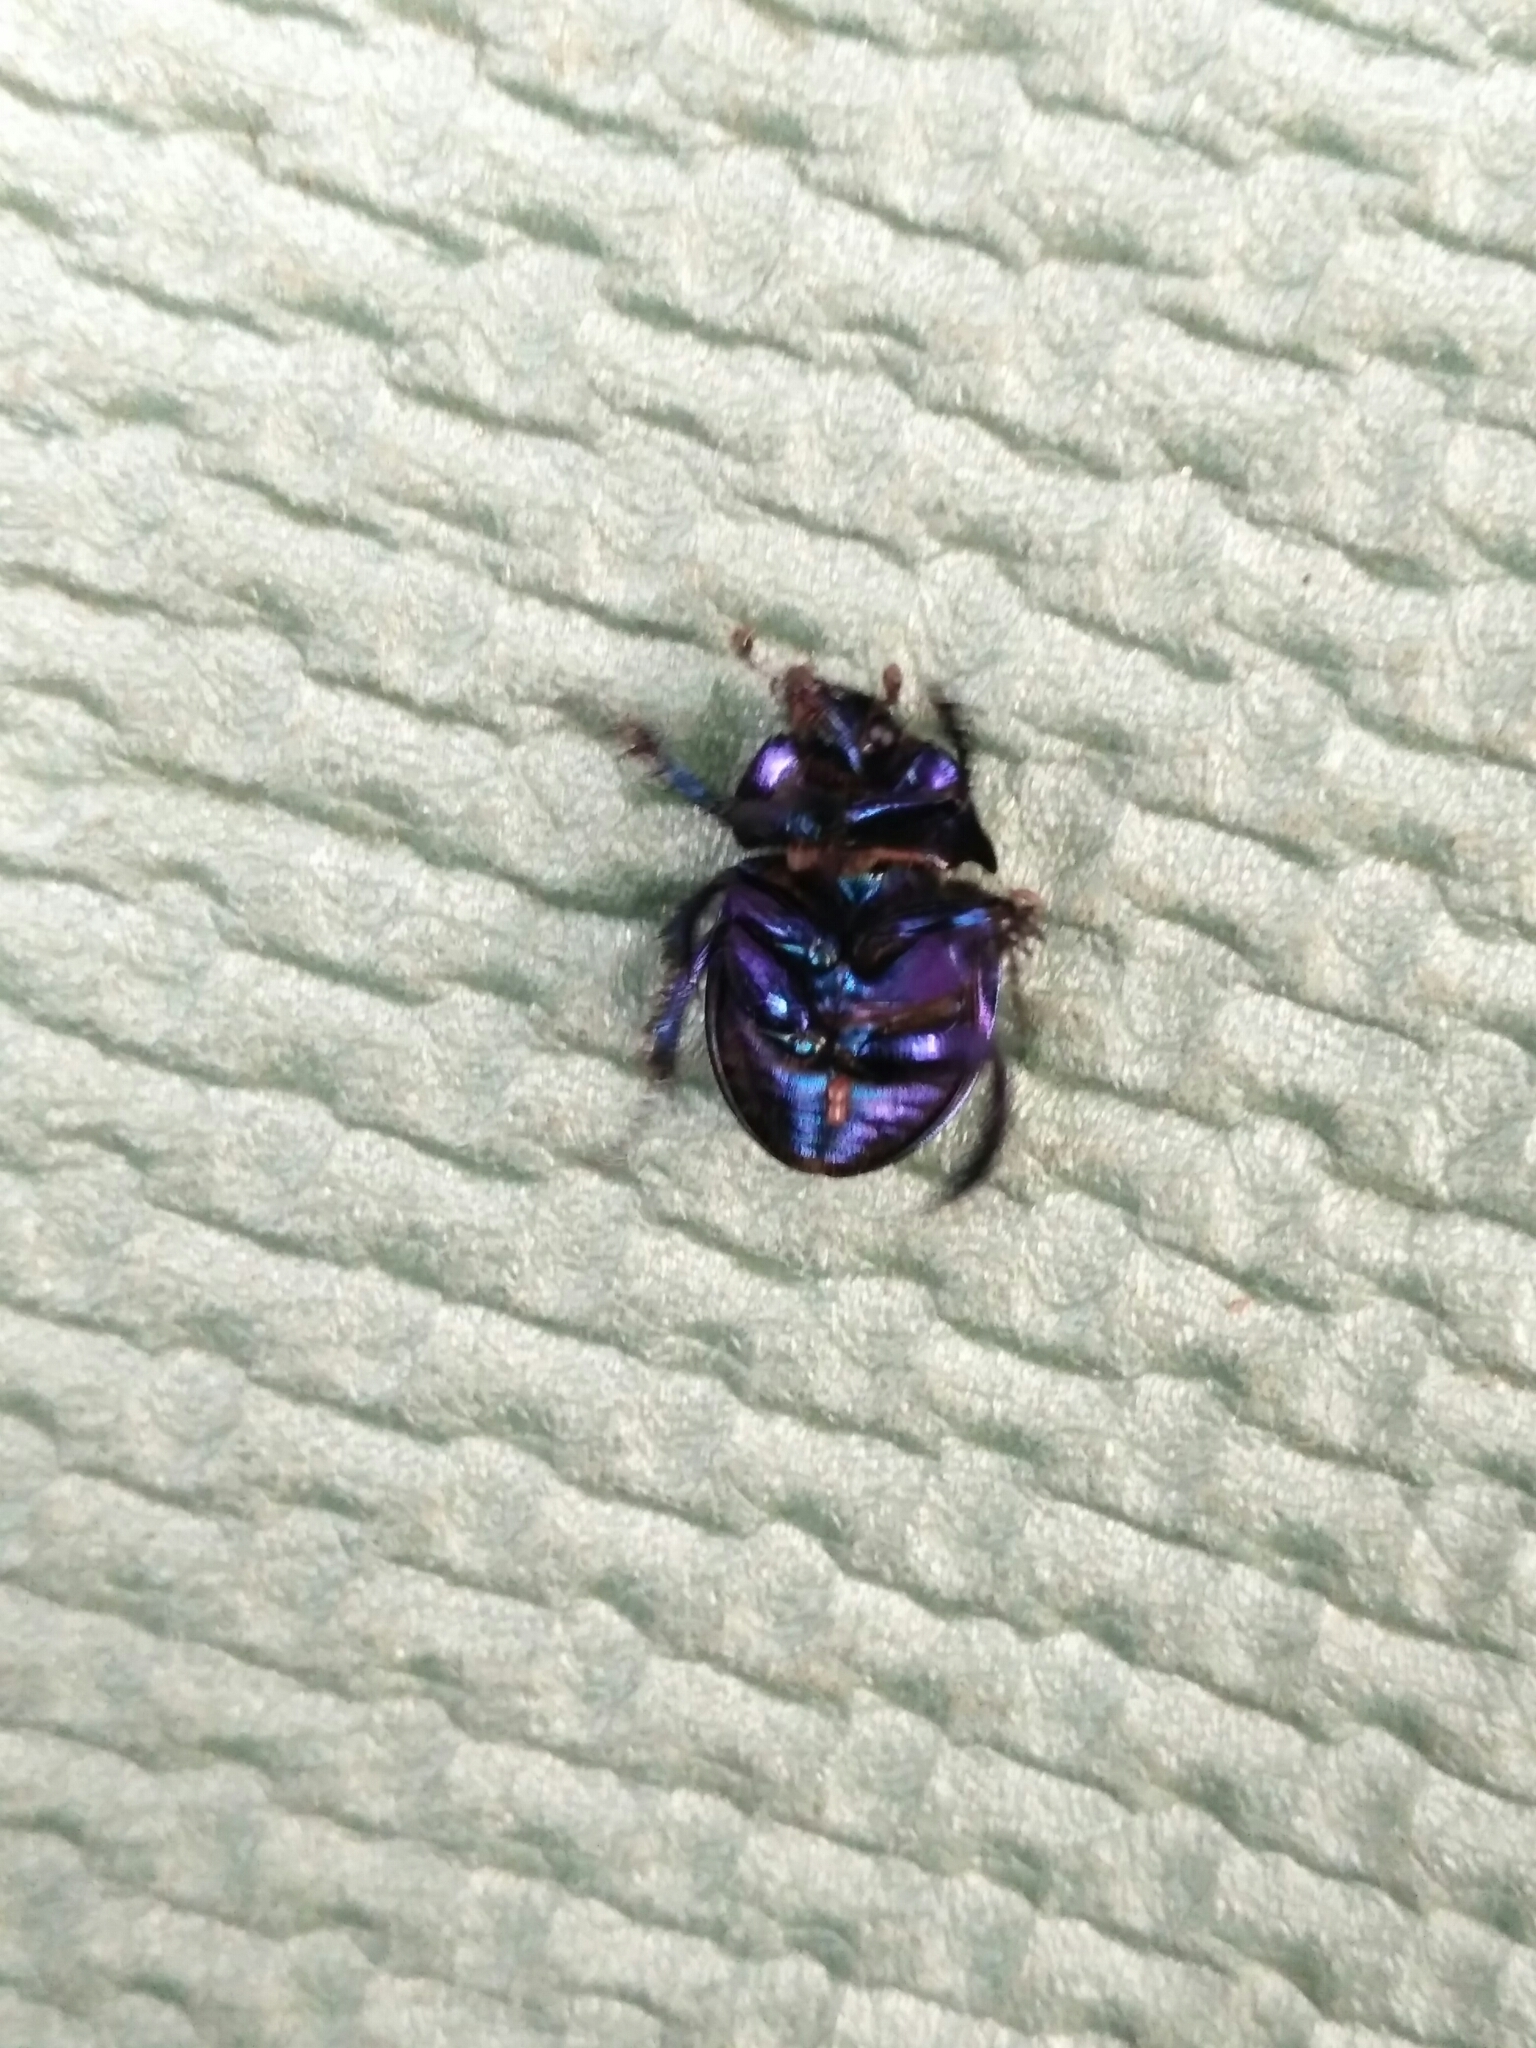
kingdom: Animalia
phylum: Arthropoda
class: Insecta
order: Coleoptera
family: Geotrupidae
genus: Anoplotrupes
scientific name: Anoplotrupes stercorosus
